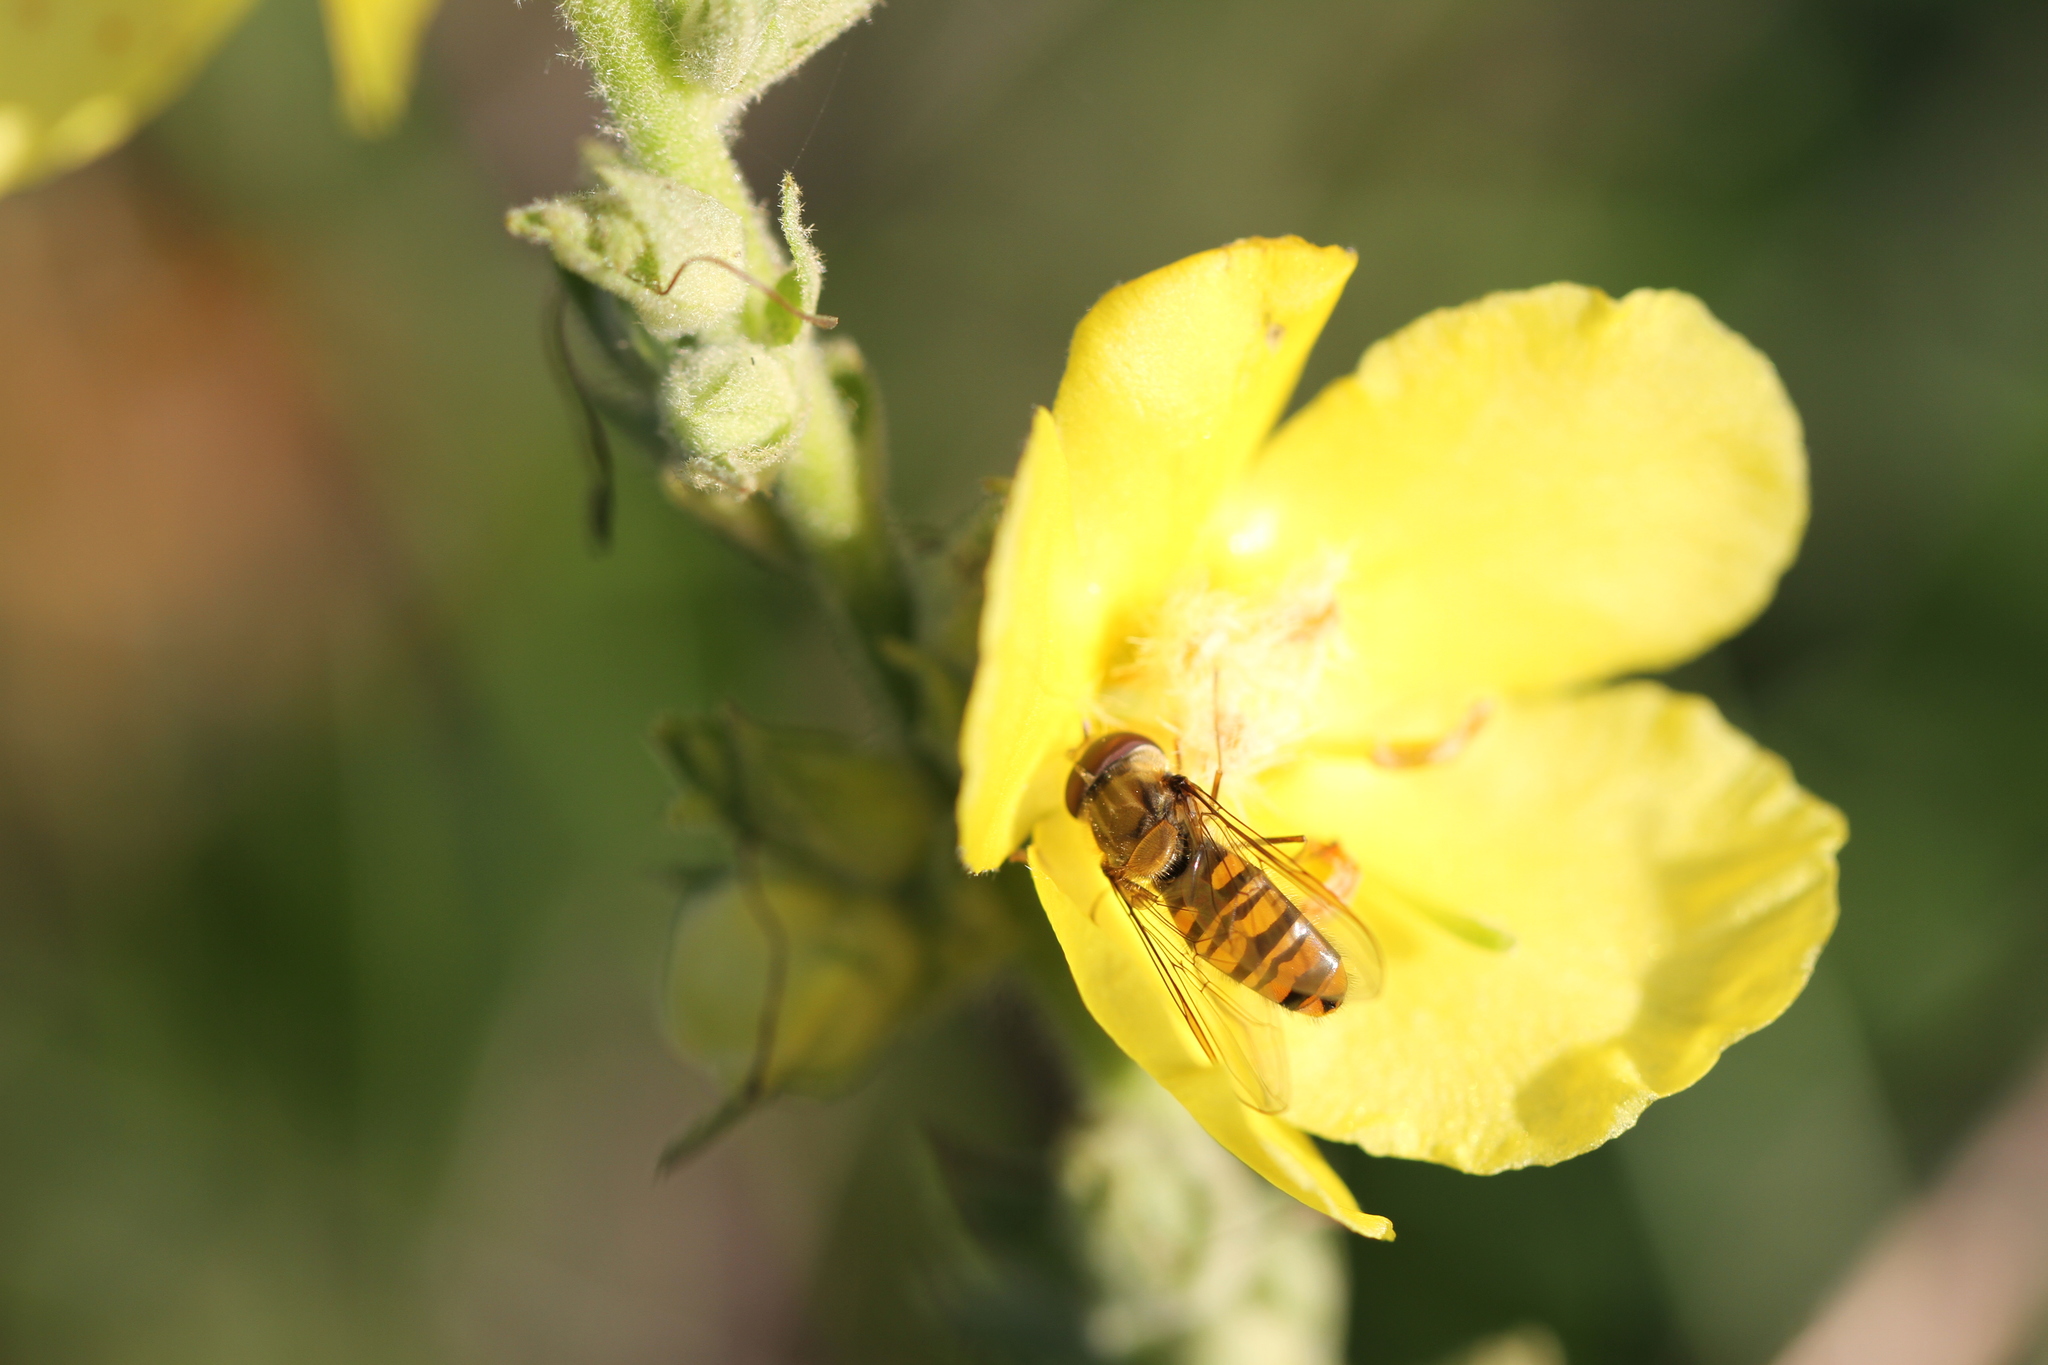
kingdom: Animalia
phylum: Arthropoda
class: Insecta
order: Diptera
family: Syrphidae
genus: Episyrphus
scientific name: Episyrphus balteatus
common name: Marmalade hoverfly
